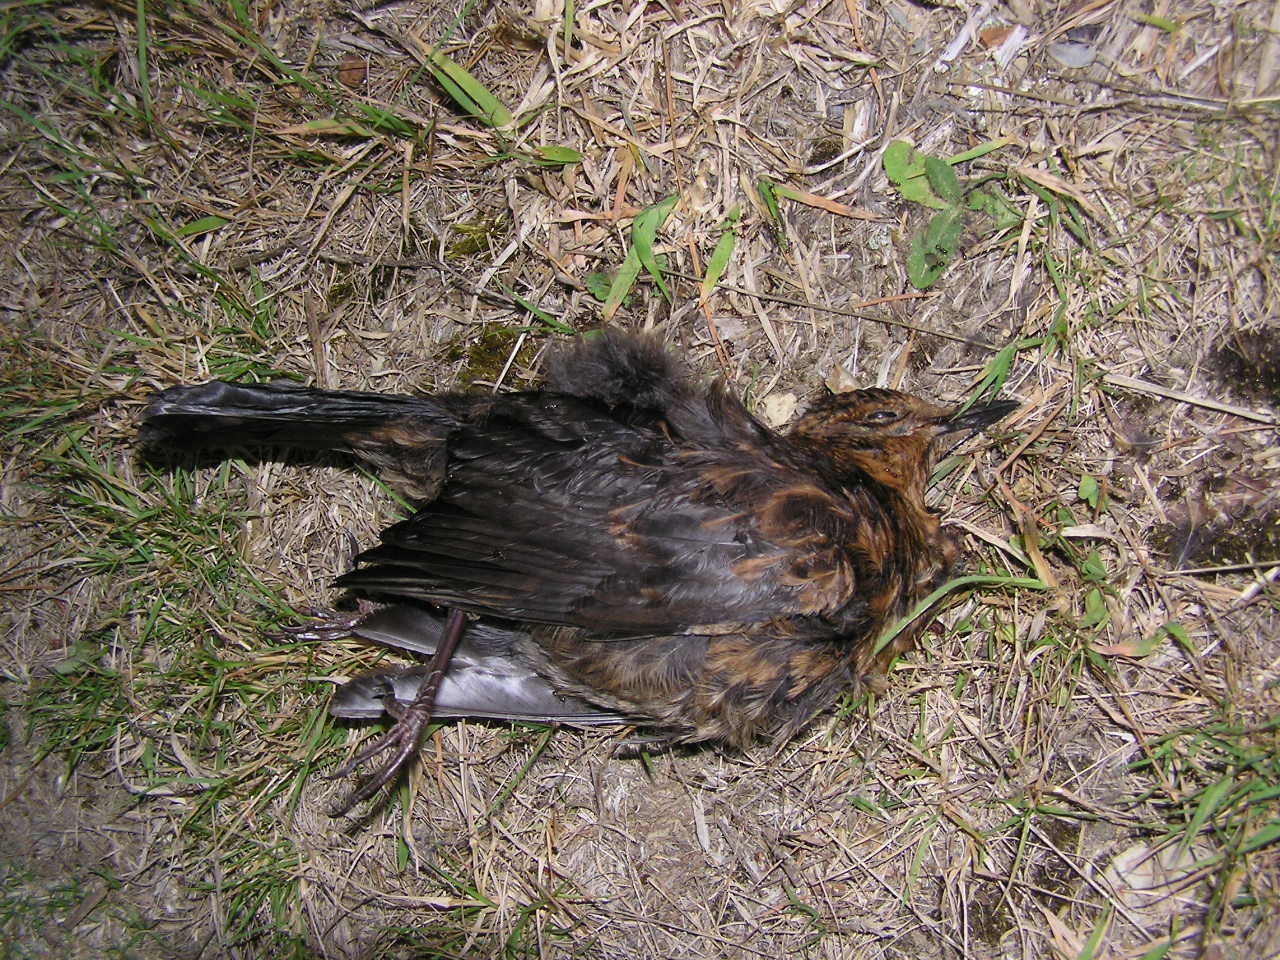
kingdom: Animalia
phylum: Chordata
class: Aves
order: Passeriformes
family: Turdidae
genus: Turdus
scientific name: Turdus merula
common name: Common blackbird
